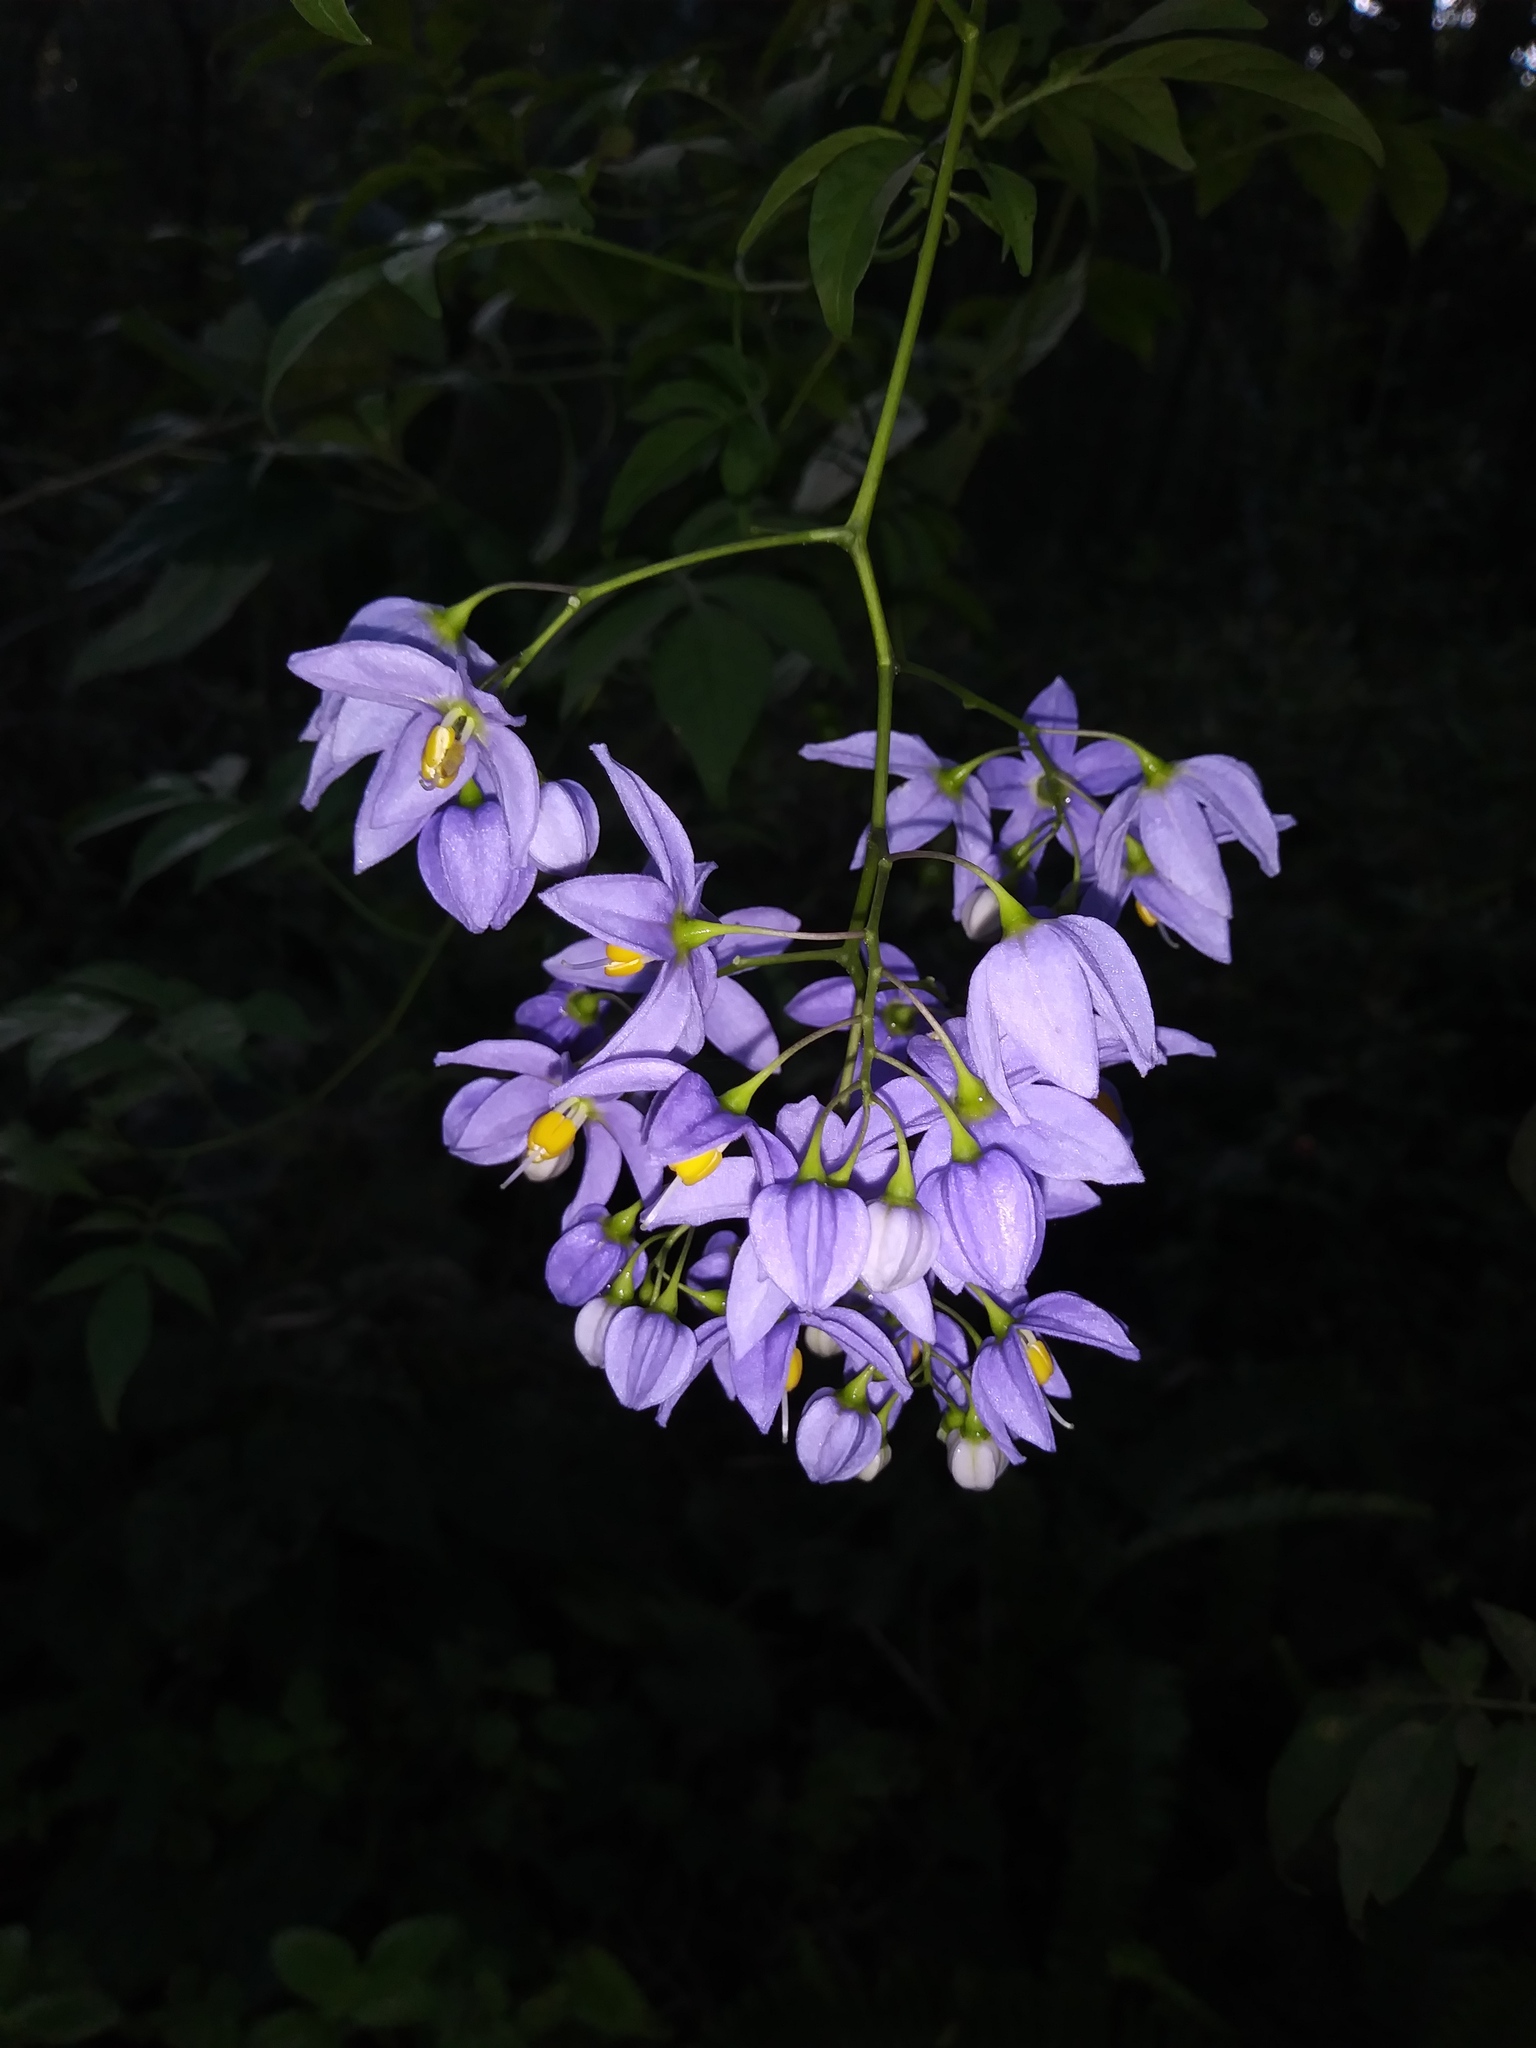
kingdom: Plantae
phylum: Tracheophyta
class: Magnoliopsida
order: Solanales
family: Solanaceae
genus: Solanum
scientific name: Solanum seaforthianum
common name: Brazilian nightshade
